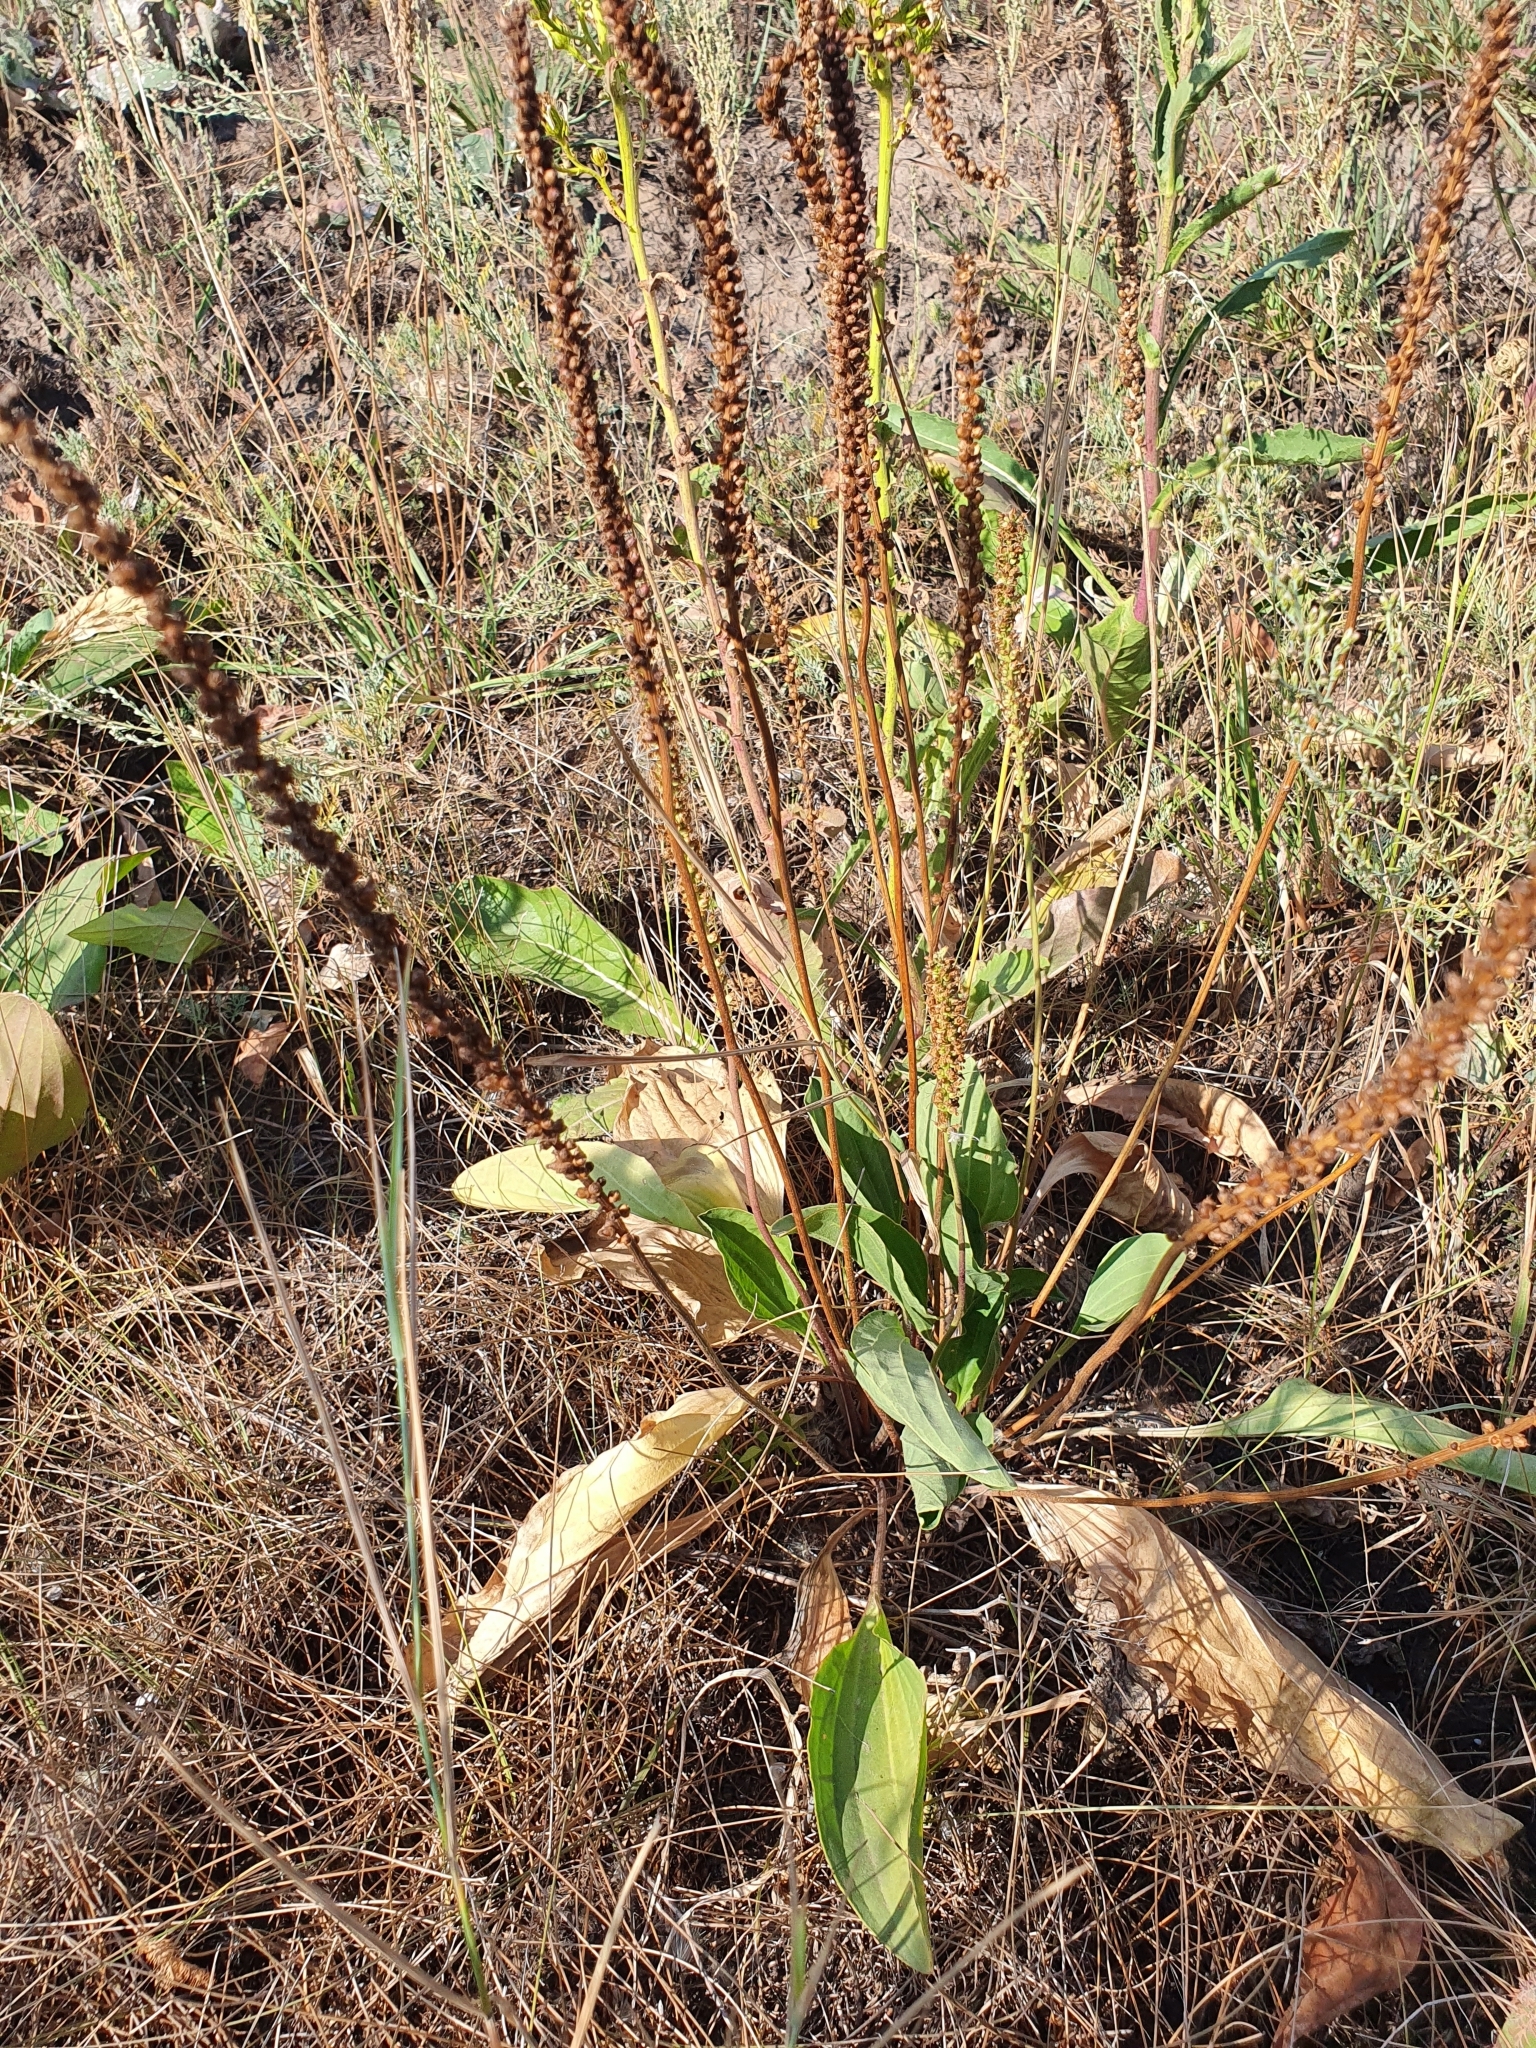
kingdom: Plantae
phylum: Tracheophyta
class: Magnoliopsida
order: Lamiales
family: Plantaginaceae
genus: Plantago
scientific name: Plantago cornuti
